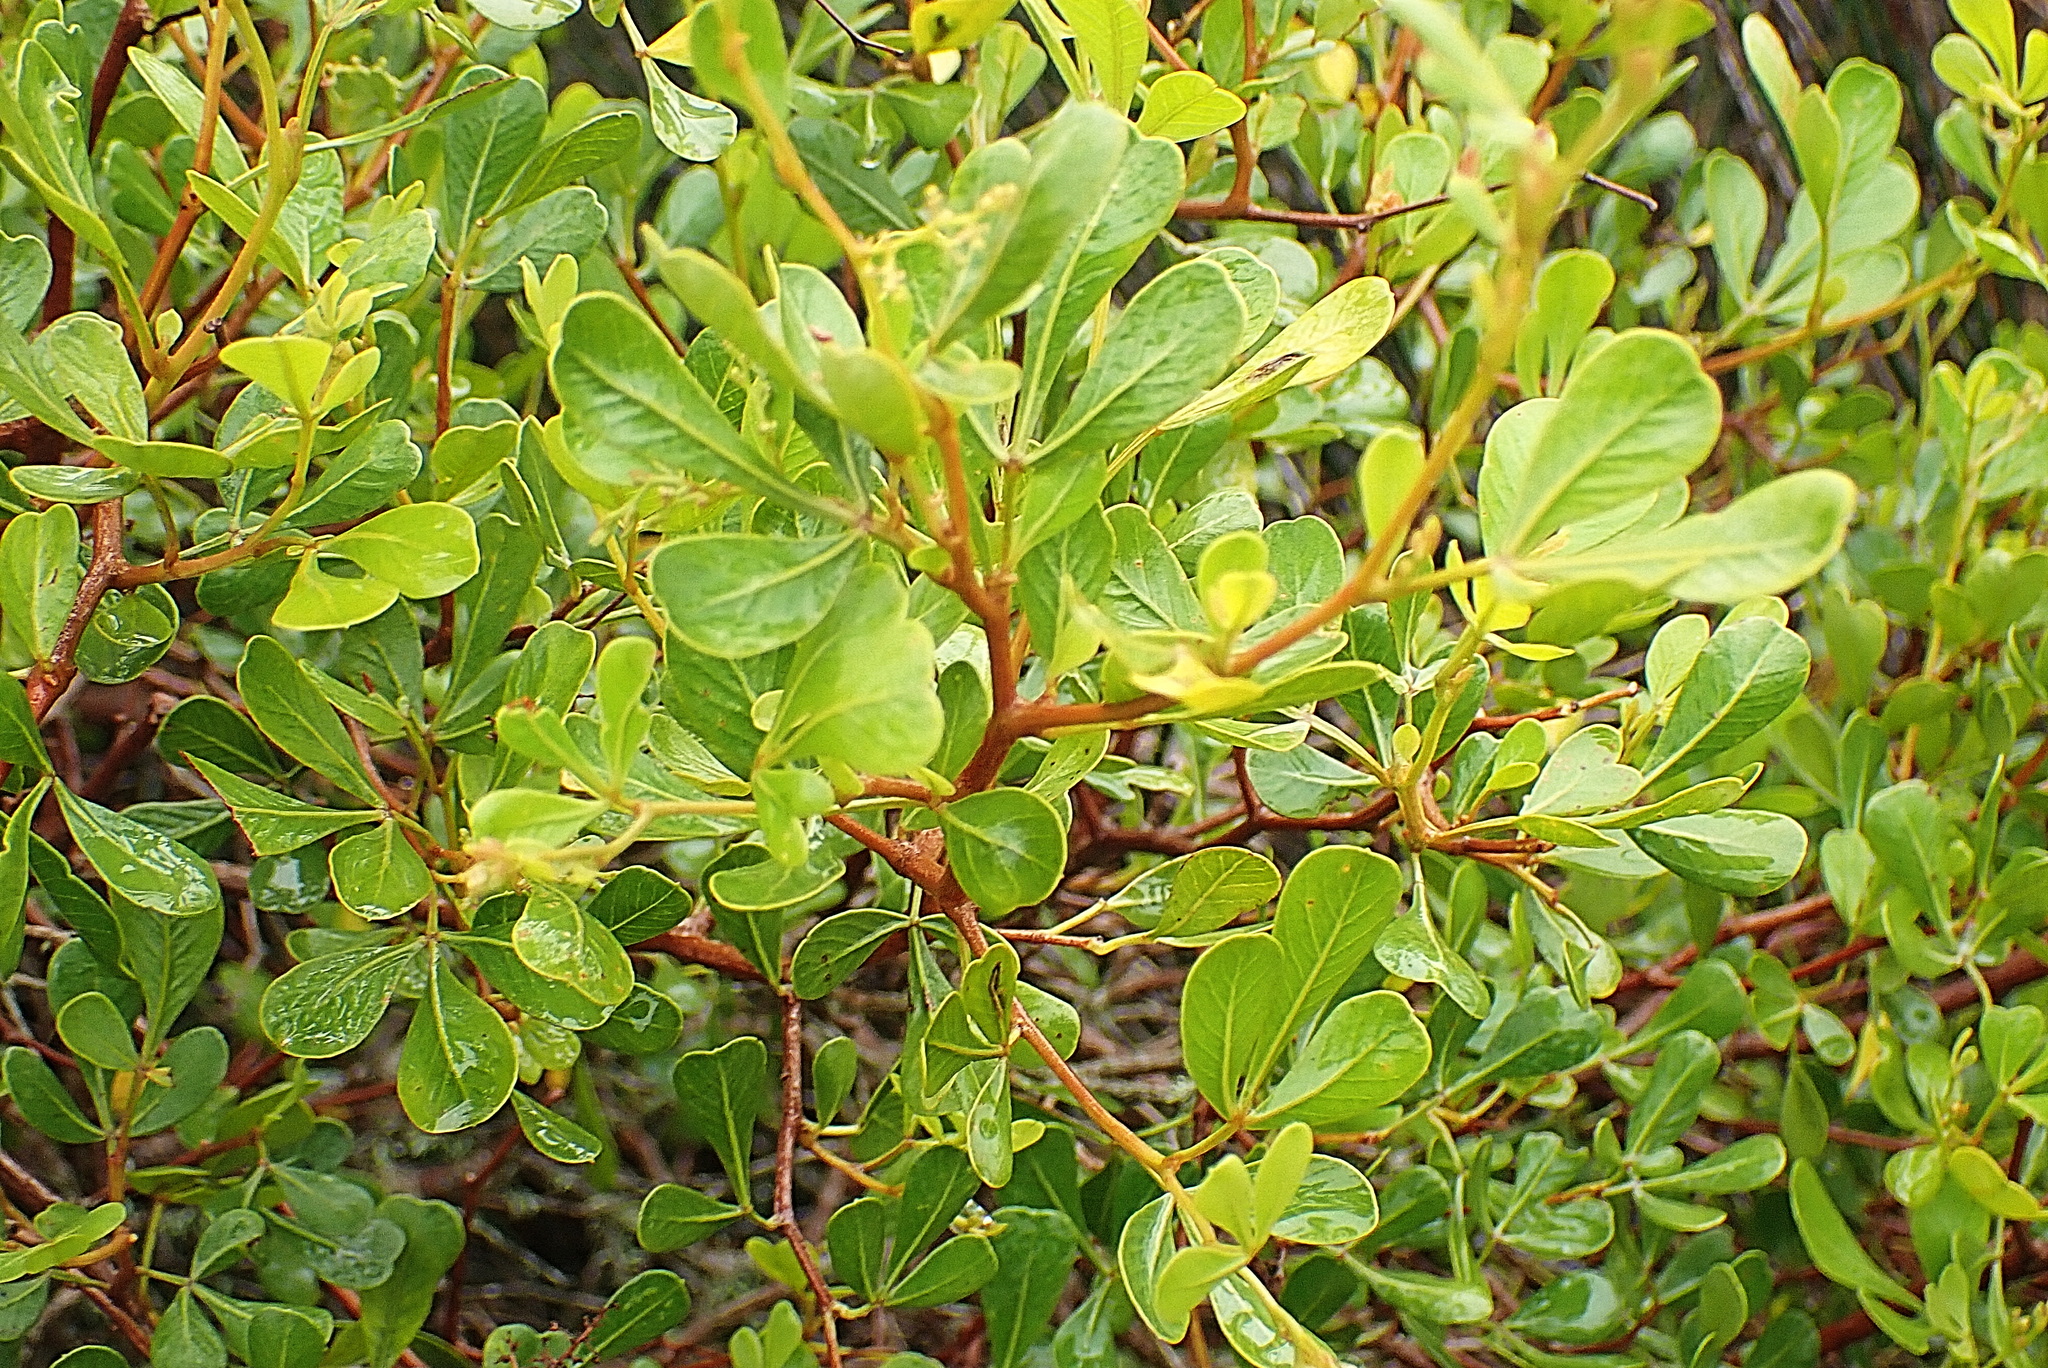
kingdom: Plantae
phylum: Tracheophyta
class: Magnoliopsida
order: Sapindales
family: Anacardiaceae
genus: Searsia
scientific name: Searsia lucida
